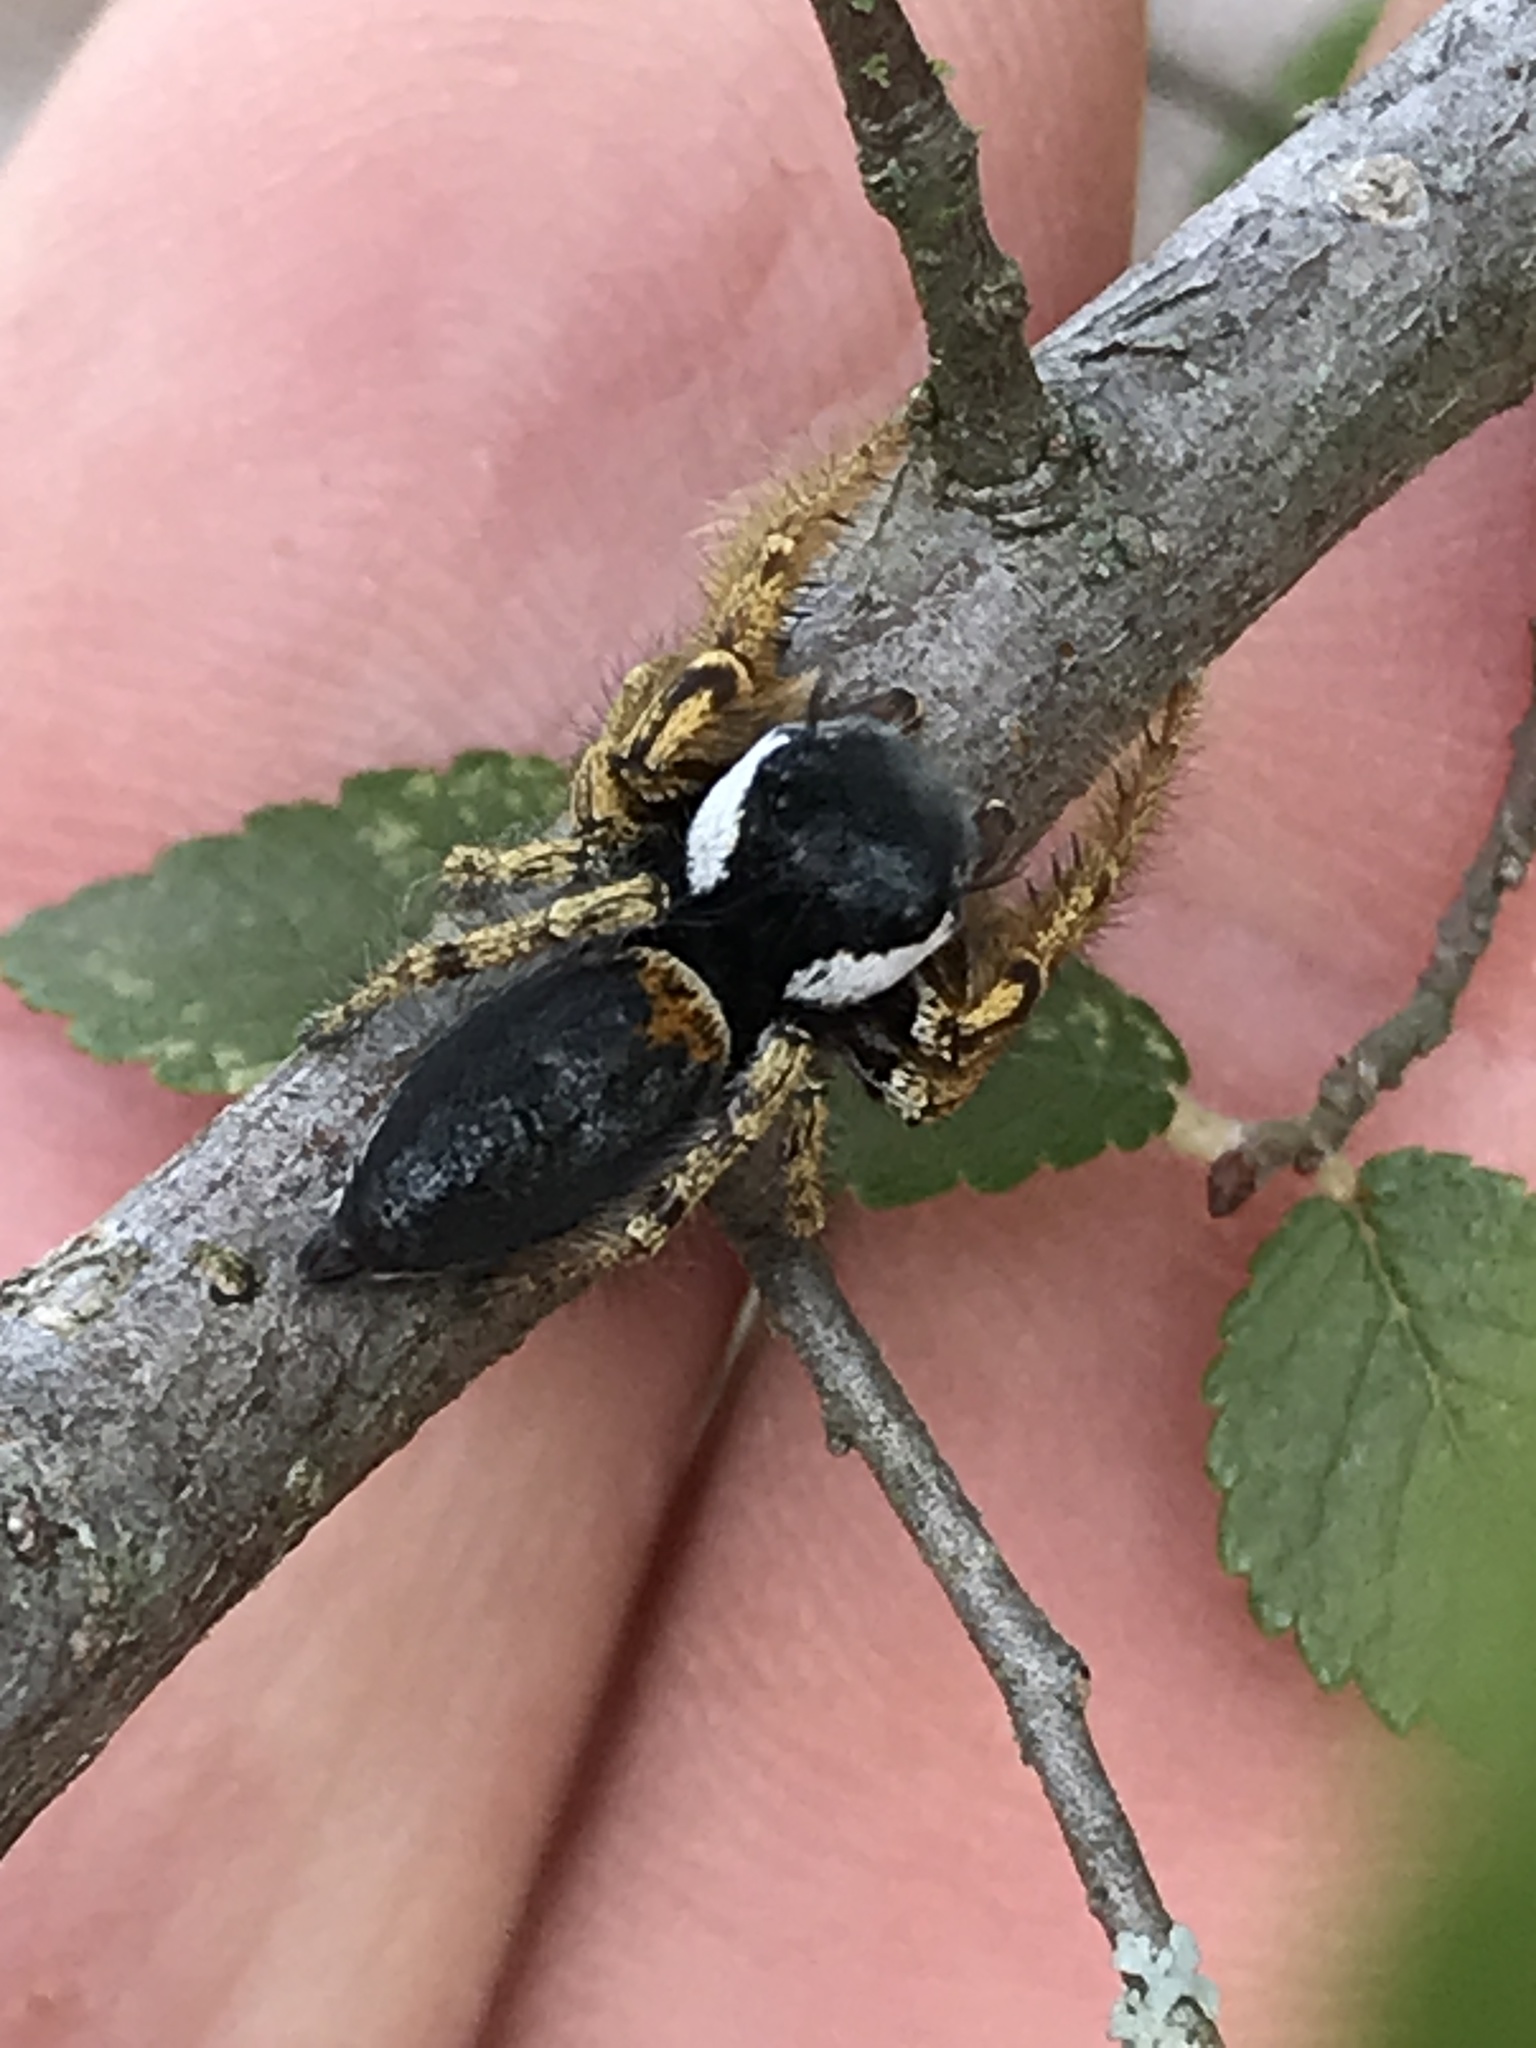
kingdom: Animalia
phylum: Arthropoda
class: Arachnida
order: Araneae
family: Salticidae
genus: Phidippus
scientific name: Phidippus arizonensis
